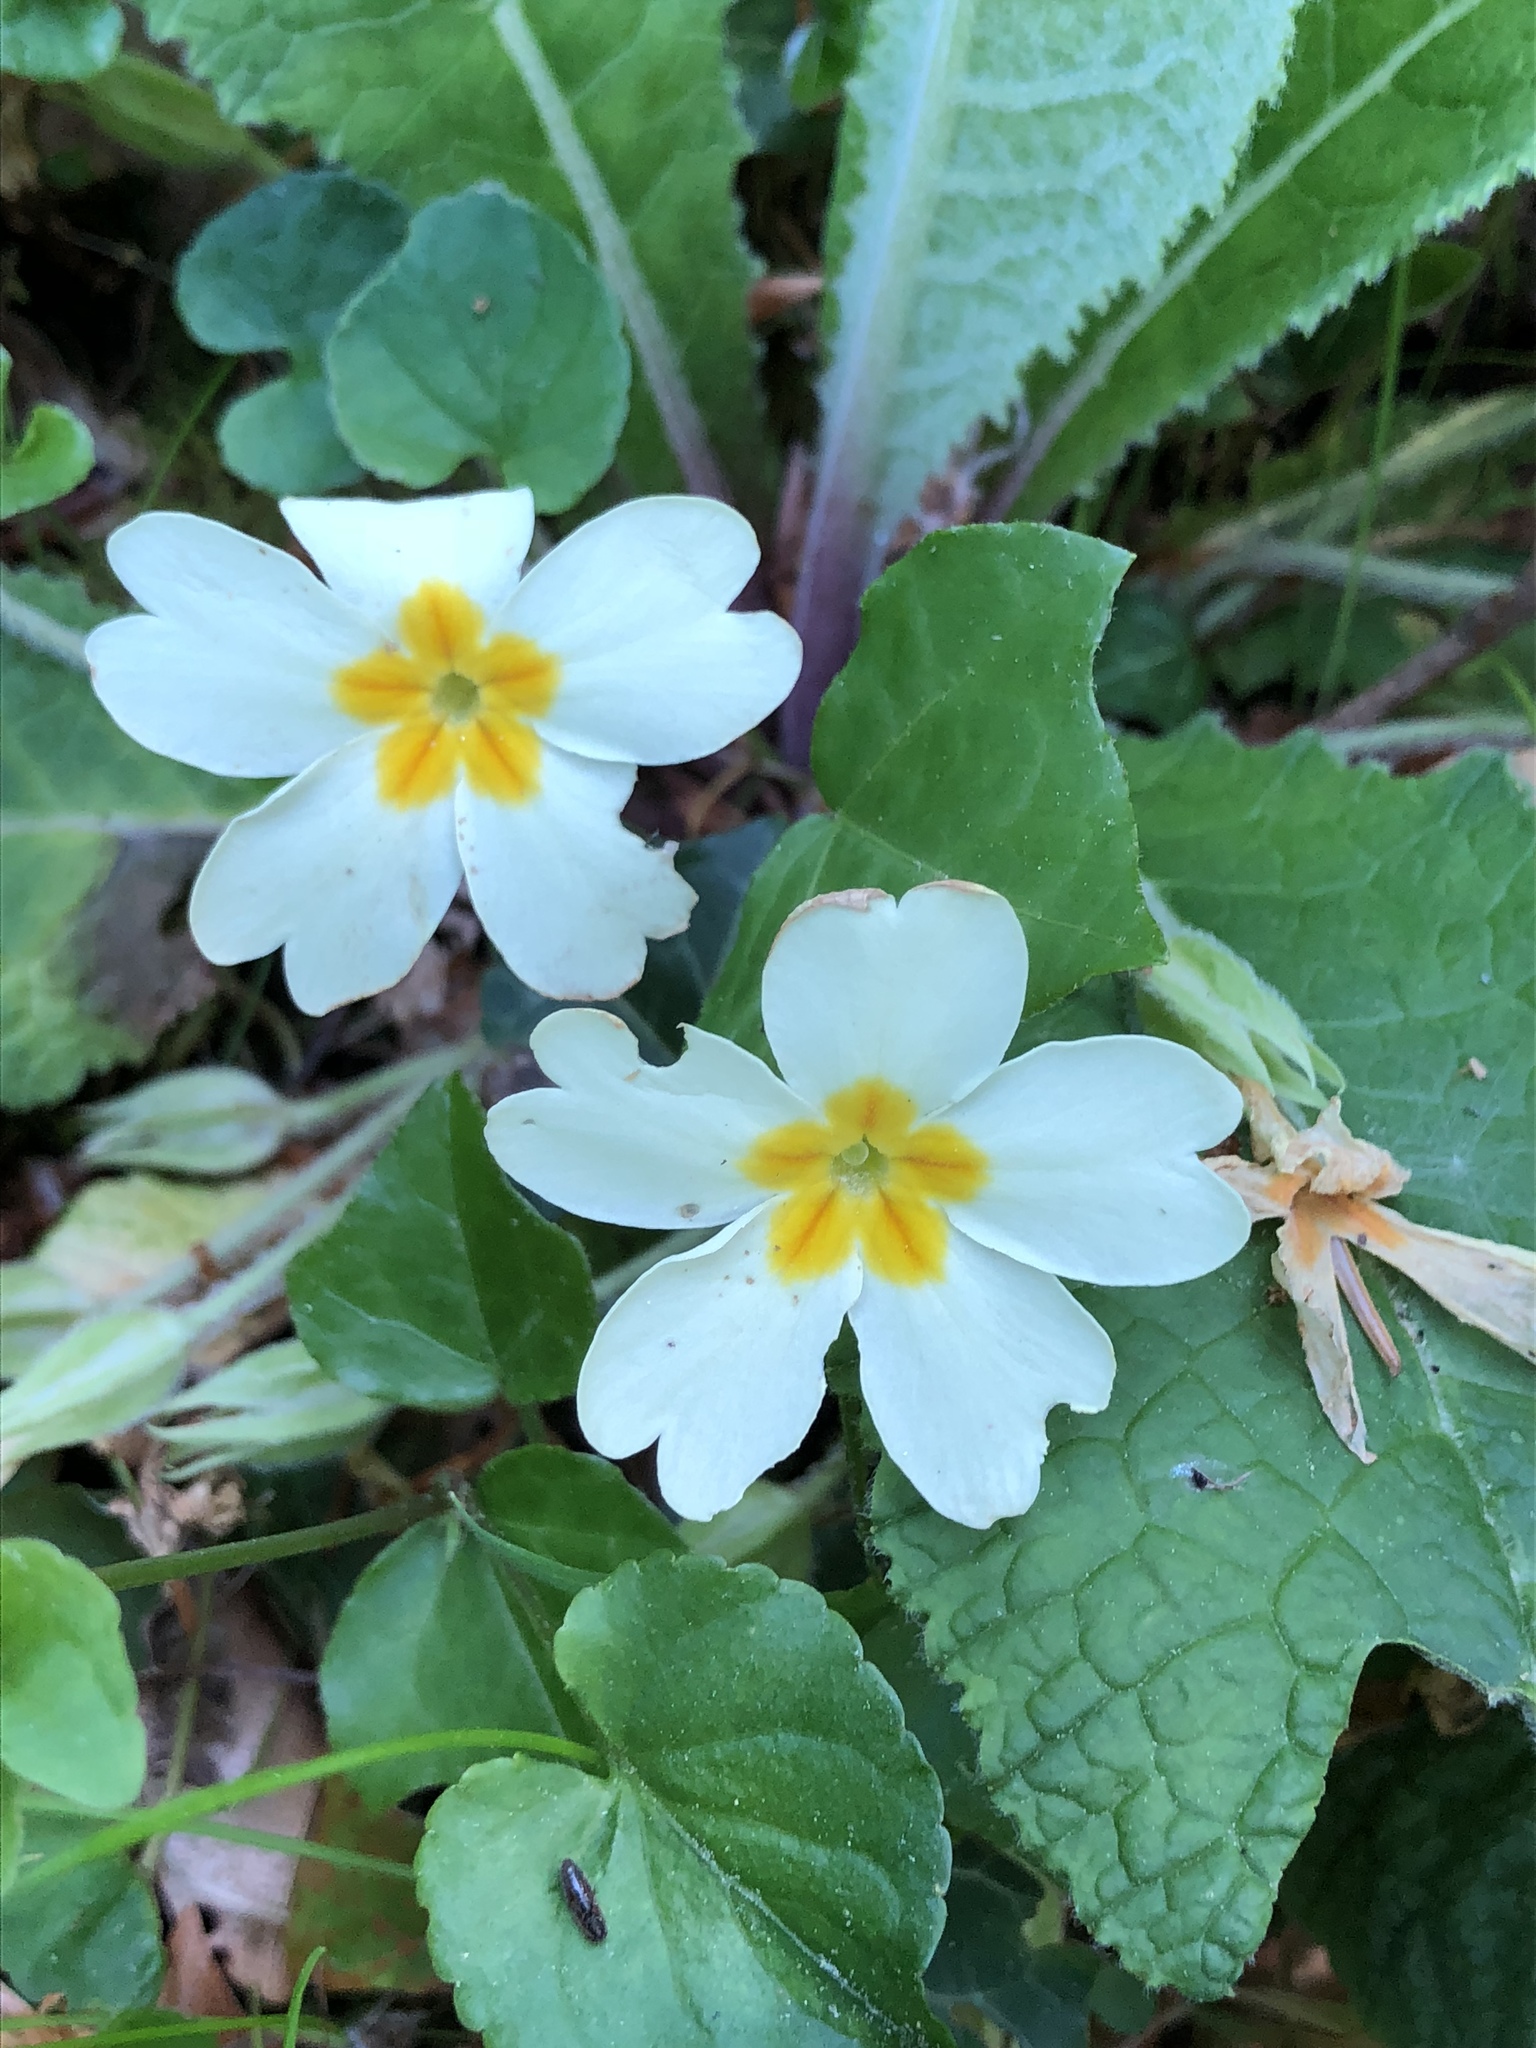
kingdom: Plantae
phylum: Tracheophyta
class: Magnoliopsida
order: Ericales
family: Primulaceae
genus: Primula
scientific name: Primula vulgaris
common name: Primrose
